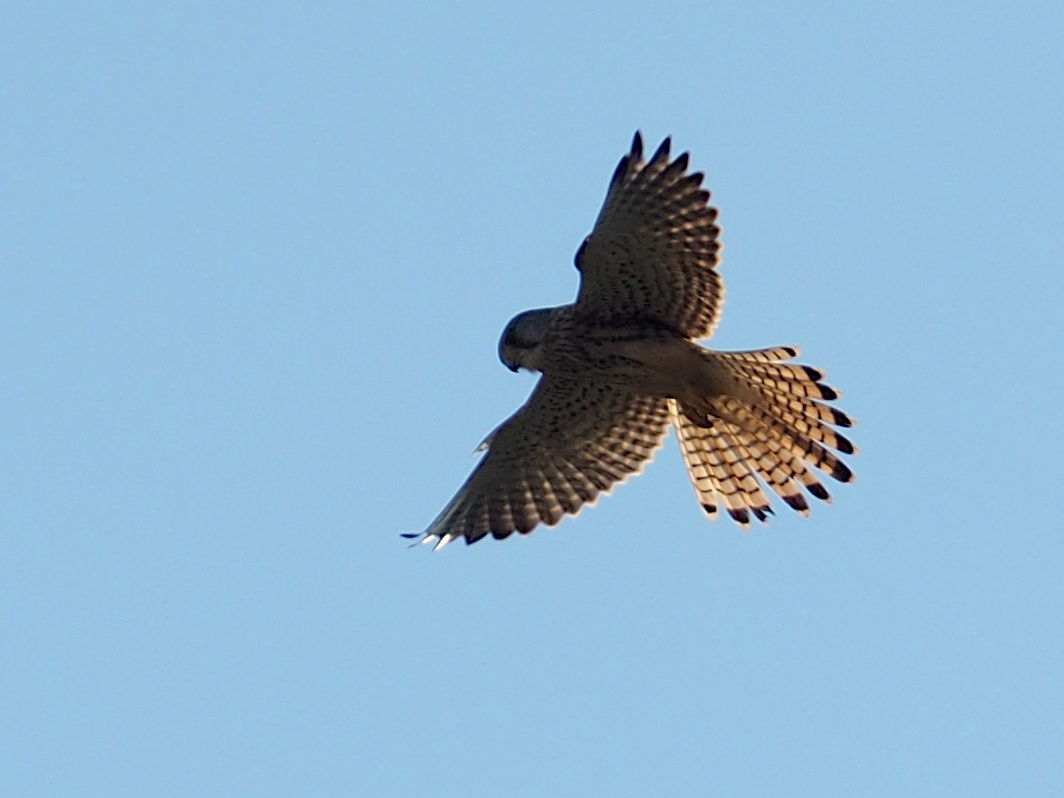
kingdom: Animalia
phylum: Chordata
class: Aves
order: Falconiformes
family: Falconidae
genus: Falco
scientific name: Falco tinnunculus
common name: Common kestrel
